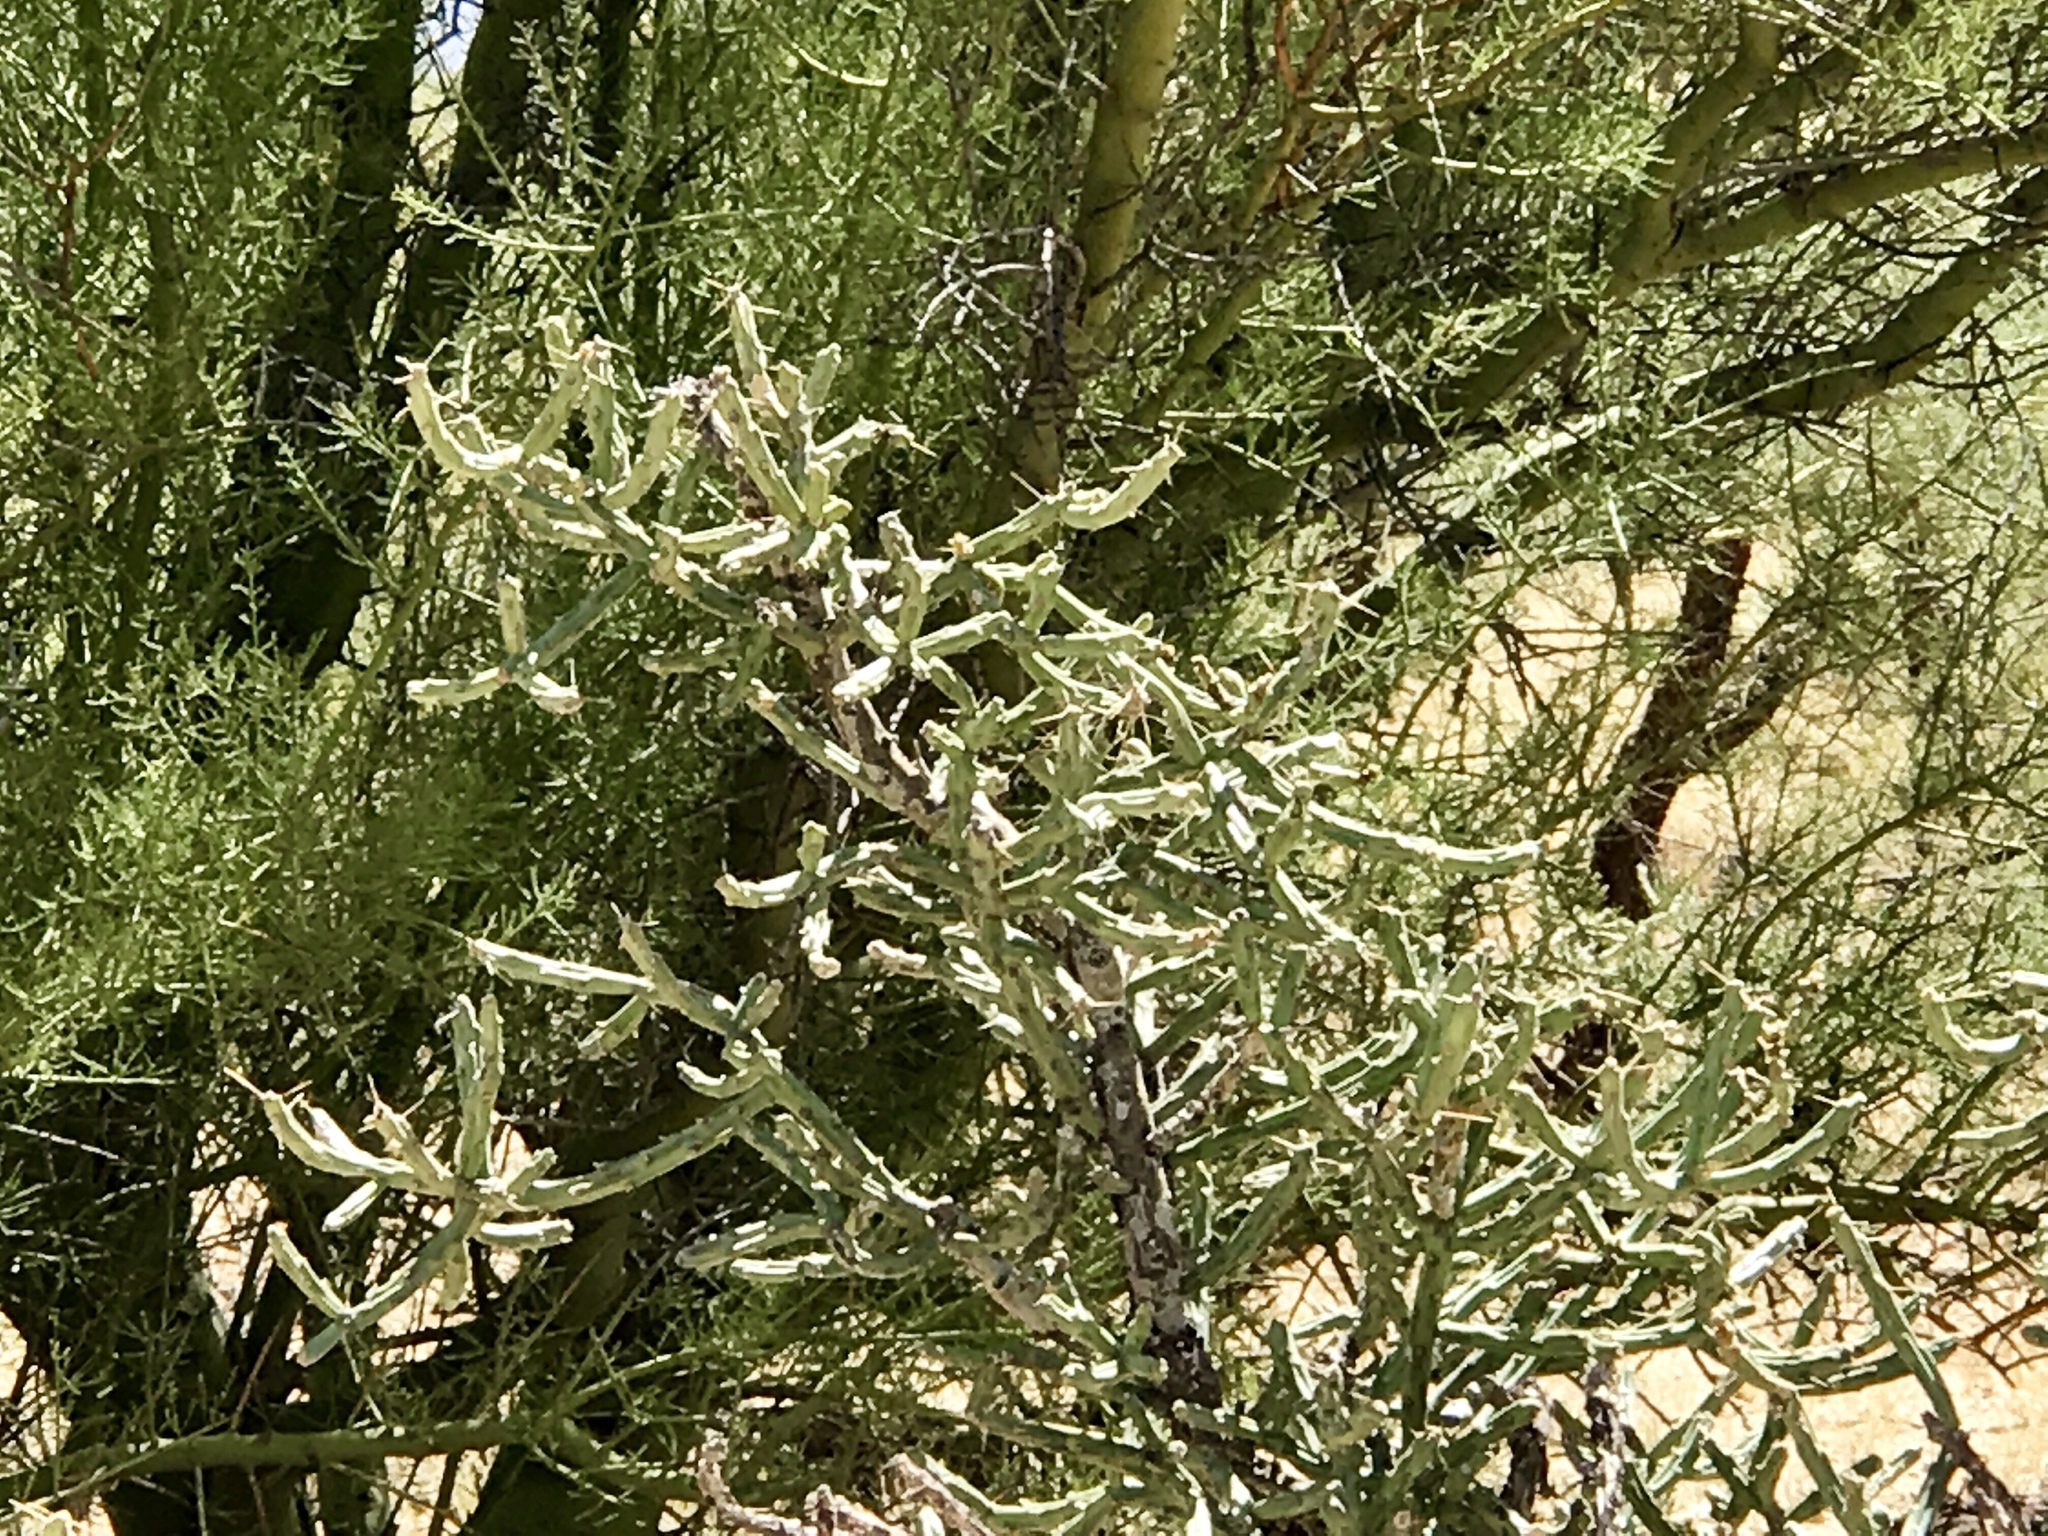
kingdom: Plantae
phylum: Tracheophyta
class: Magnoliopsida
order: Caryophyllales
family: Cactaceae
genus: Cylindropuntia
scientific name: Cylindropuntia arbuscula
